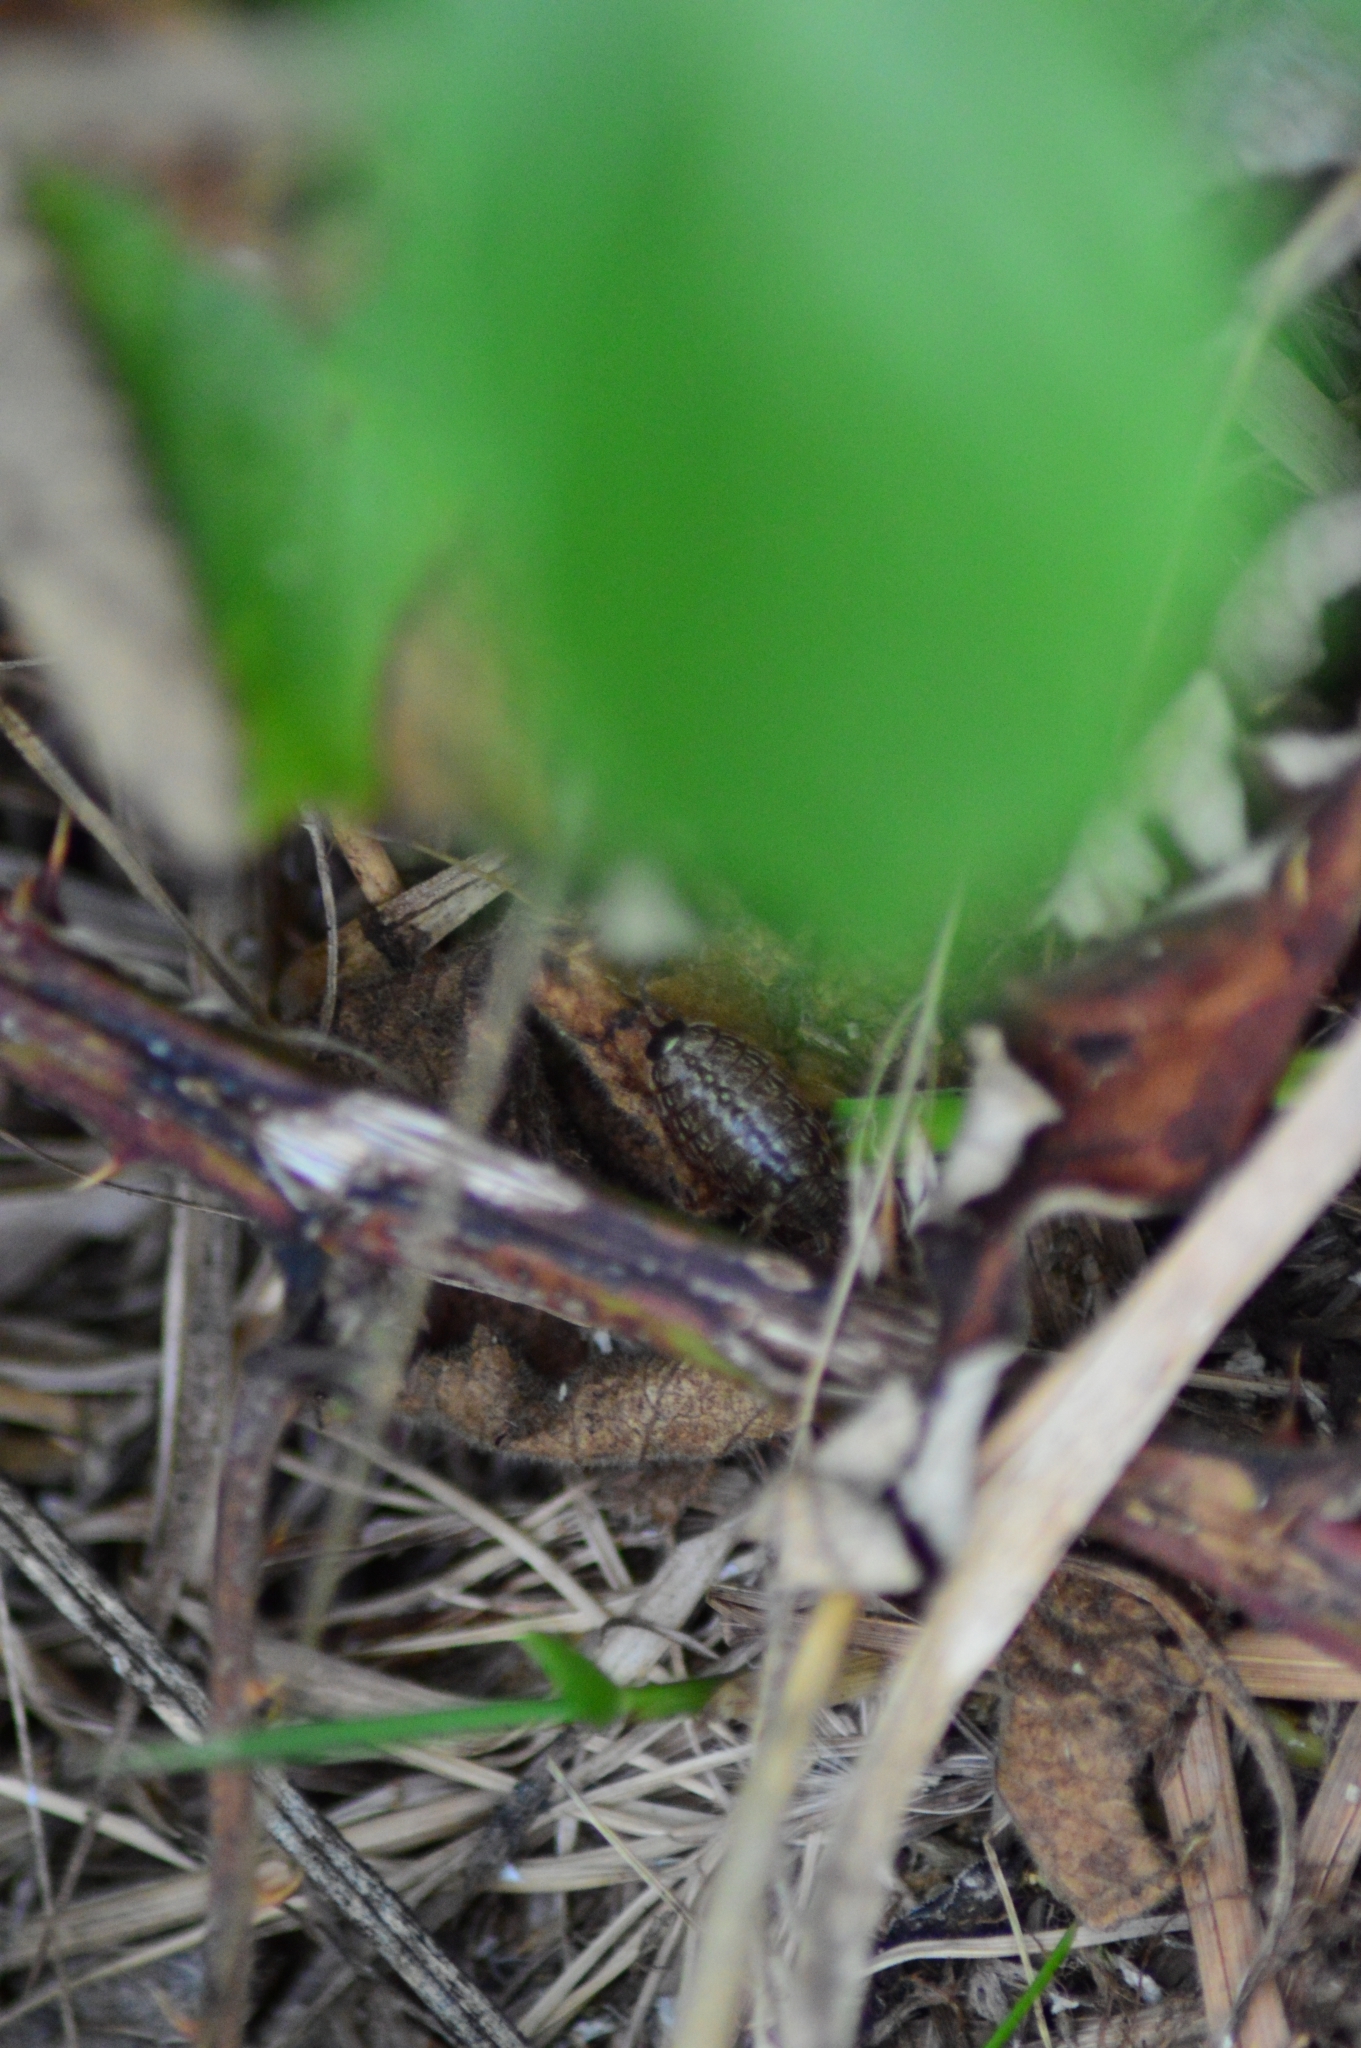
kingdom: Animalia
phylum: Arthropoda
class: Malacostraca
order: Isopoda
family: Philosciidae
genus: Philoscia
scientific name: Philoscia muscorum
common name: Common striped woodlouse
